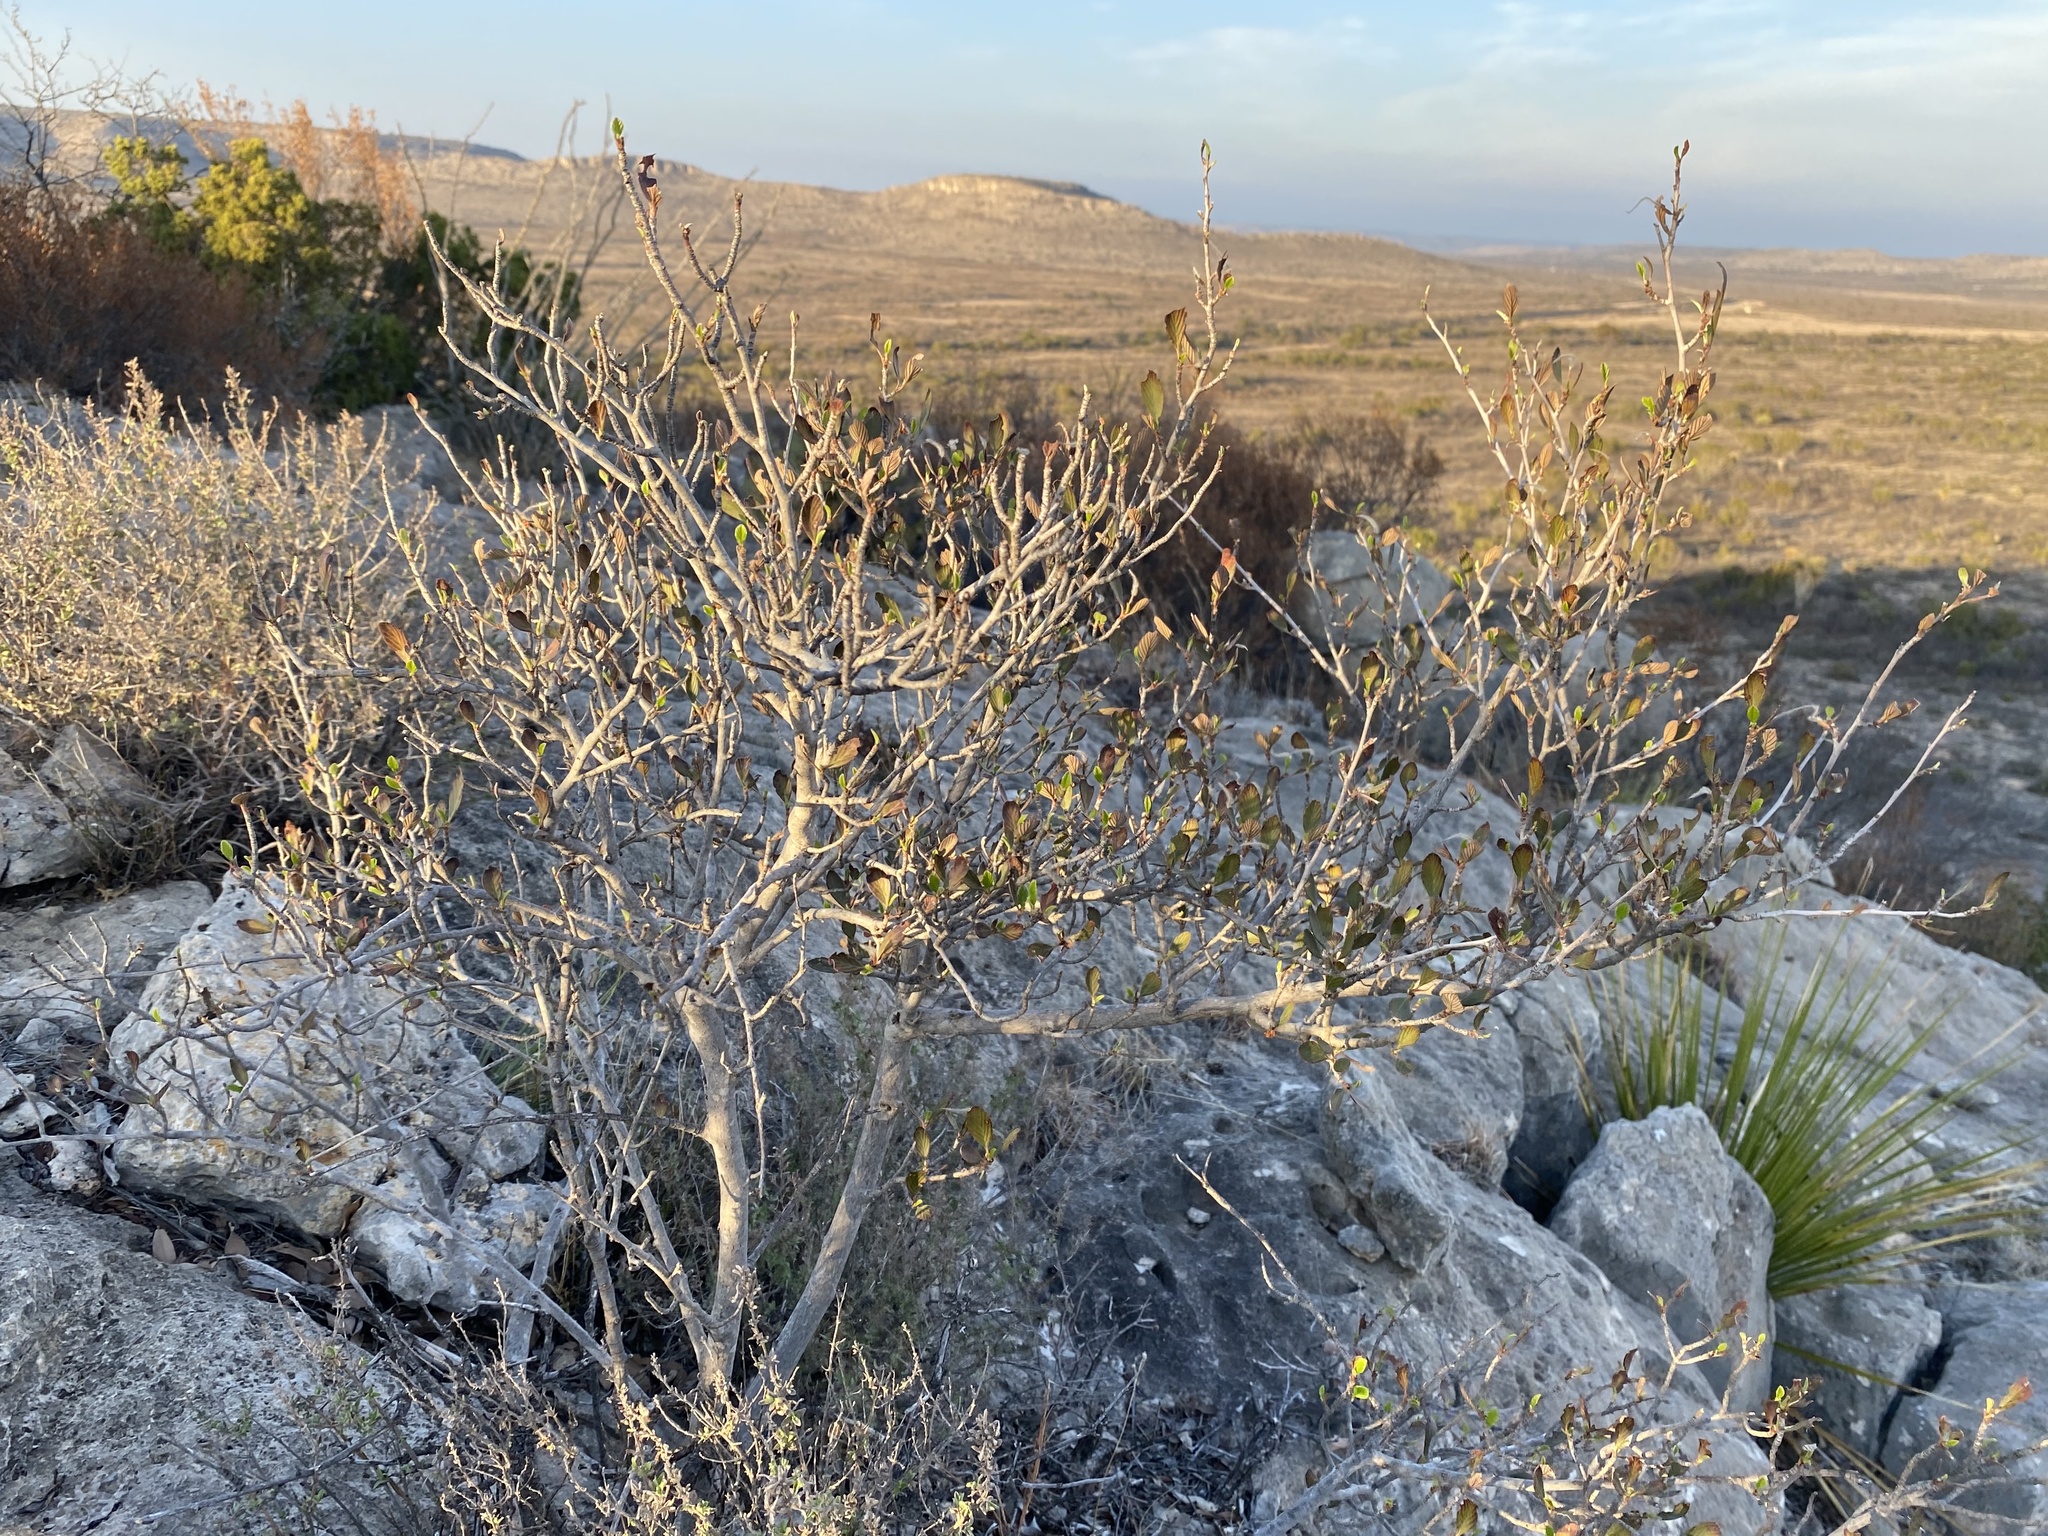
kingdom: Plantae
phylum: Tracheophyta
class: Magnoliopsida
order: Rosales
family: Rosaceae
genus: Cercocarpus
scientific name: Cercocarpus montanus
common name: Alder-leaf cercocarpus
